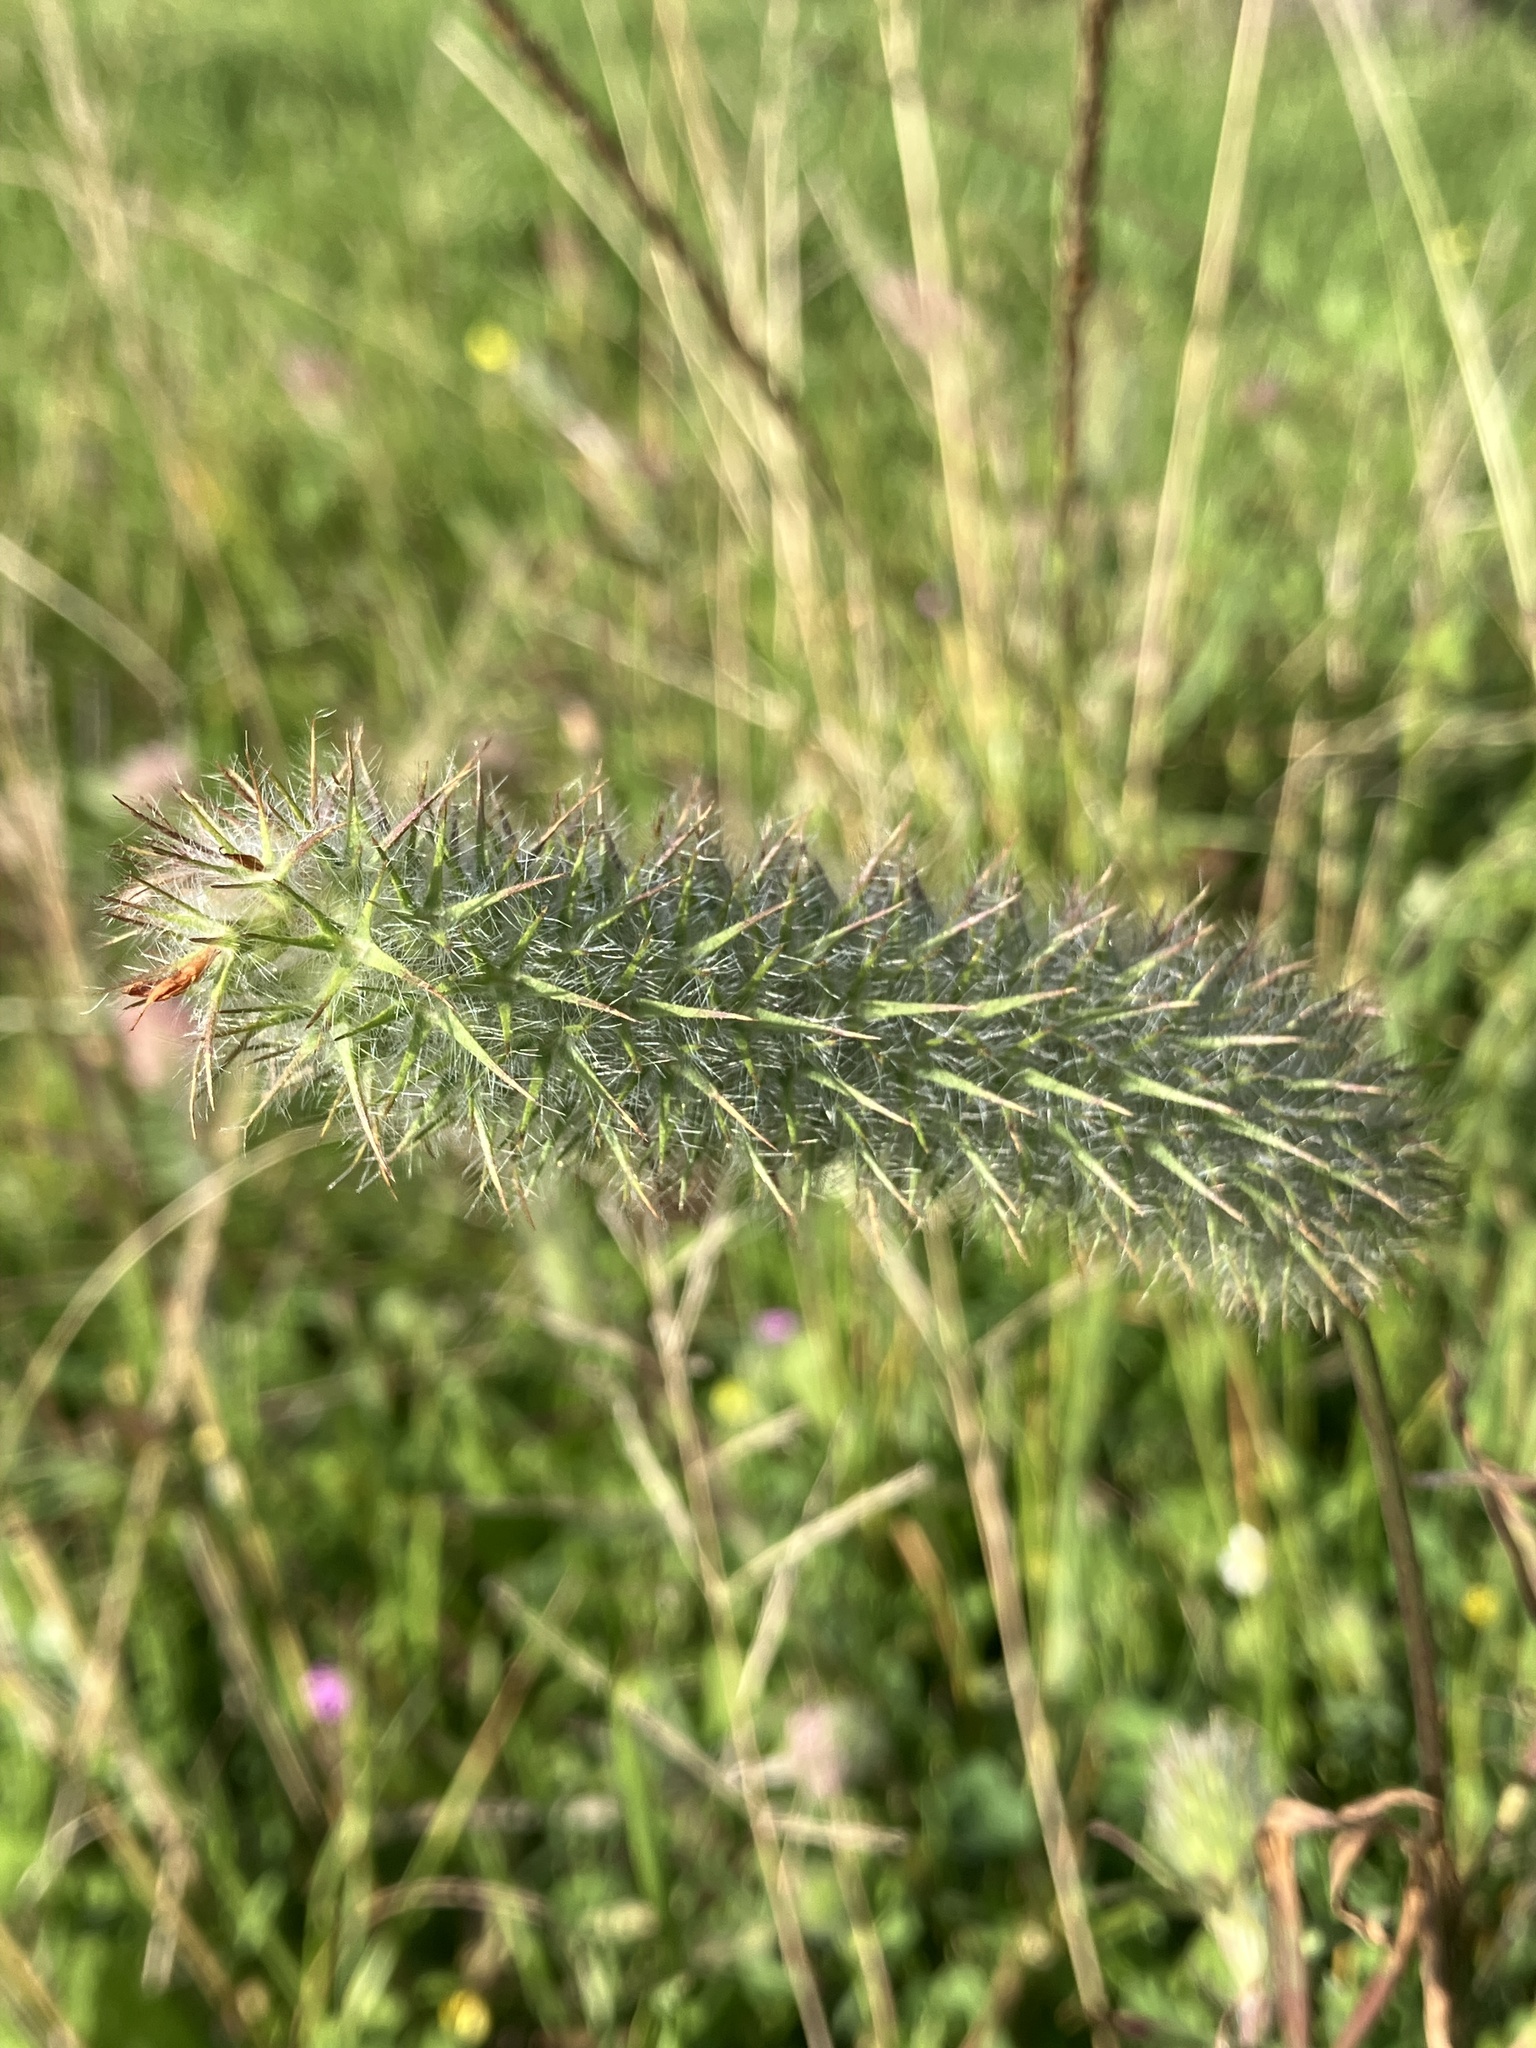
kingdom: Plantae
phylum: Tracheophyta
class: Magnoliopsida
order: Fabales
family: Fabaceae
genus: Trifolium
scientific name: Trifolium angustifolium
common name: Narrow clover
